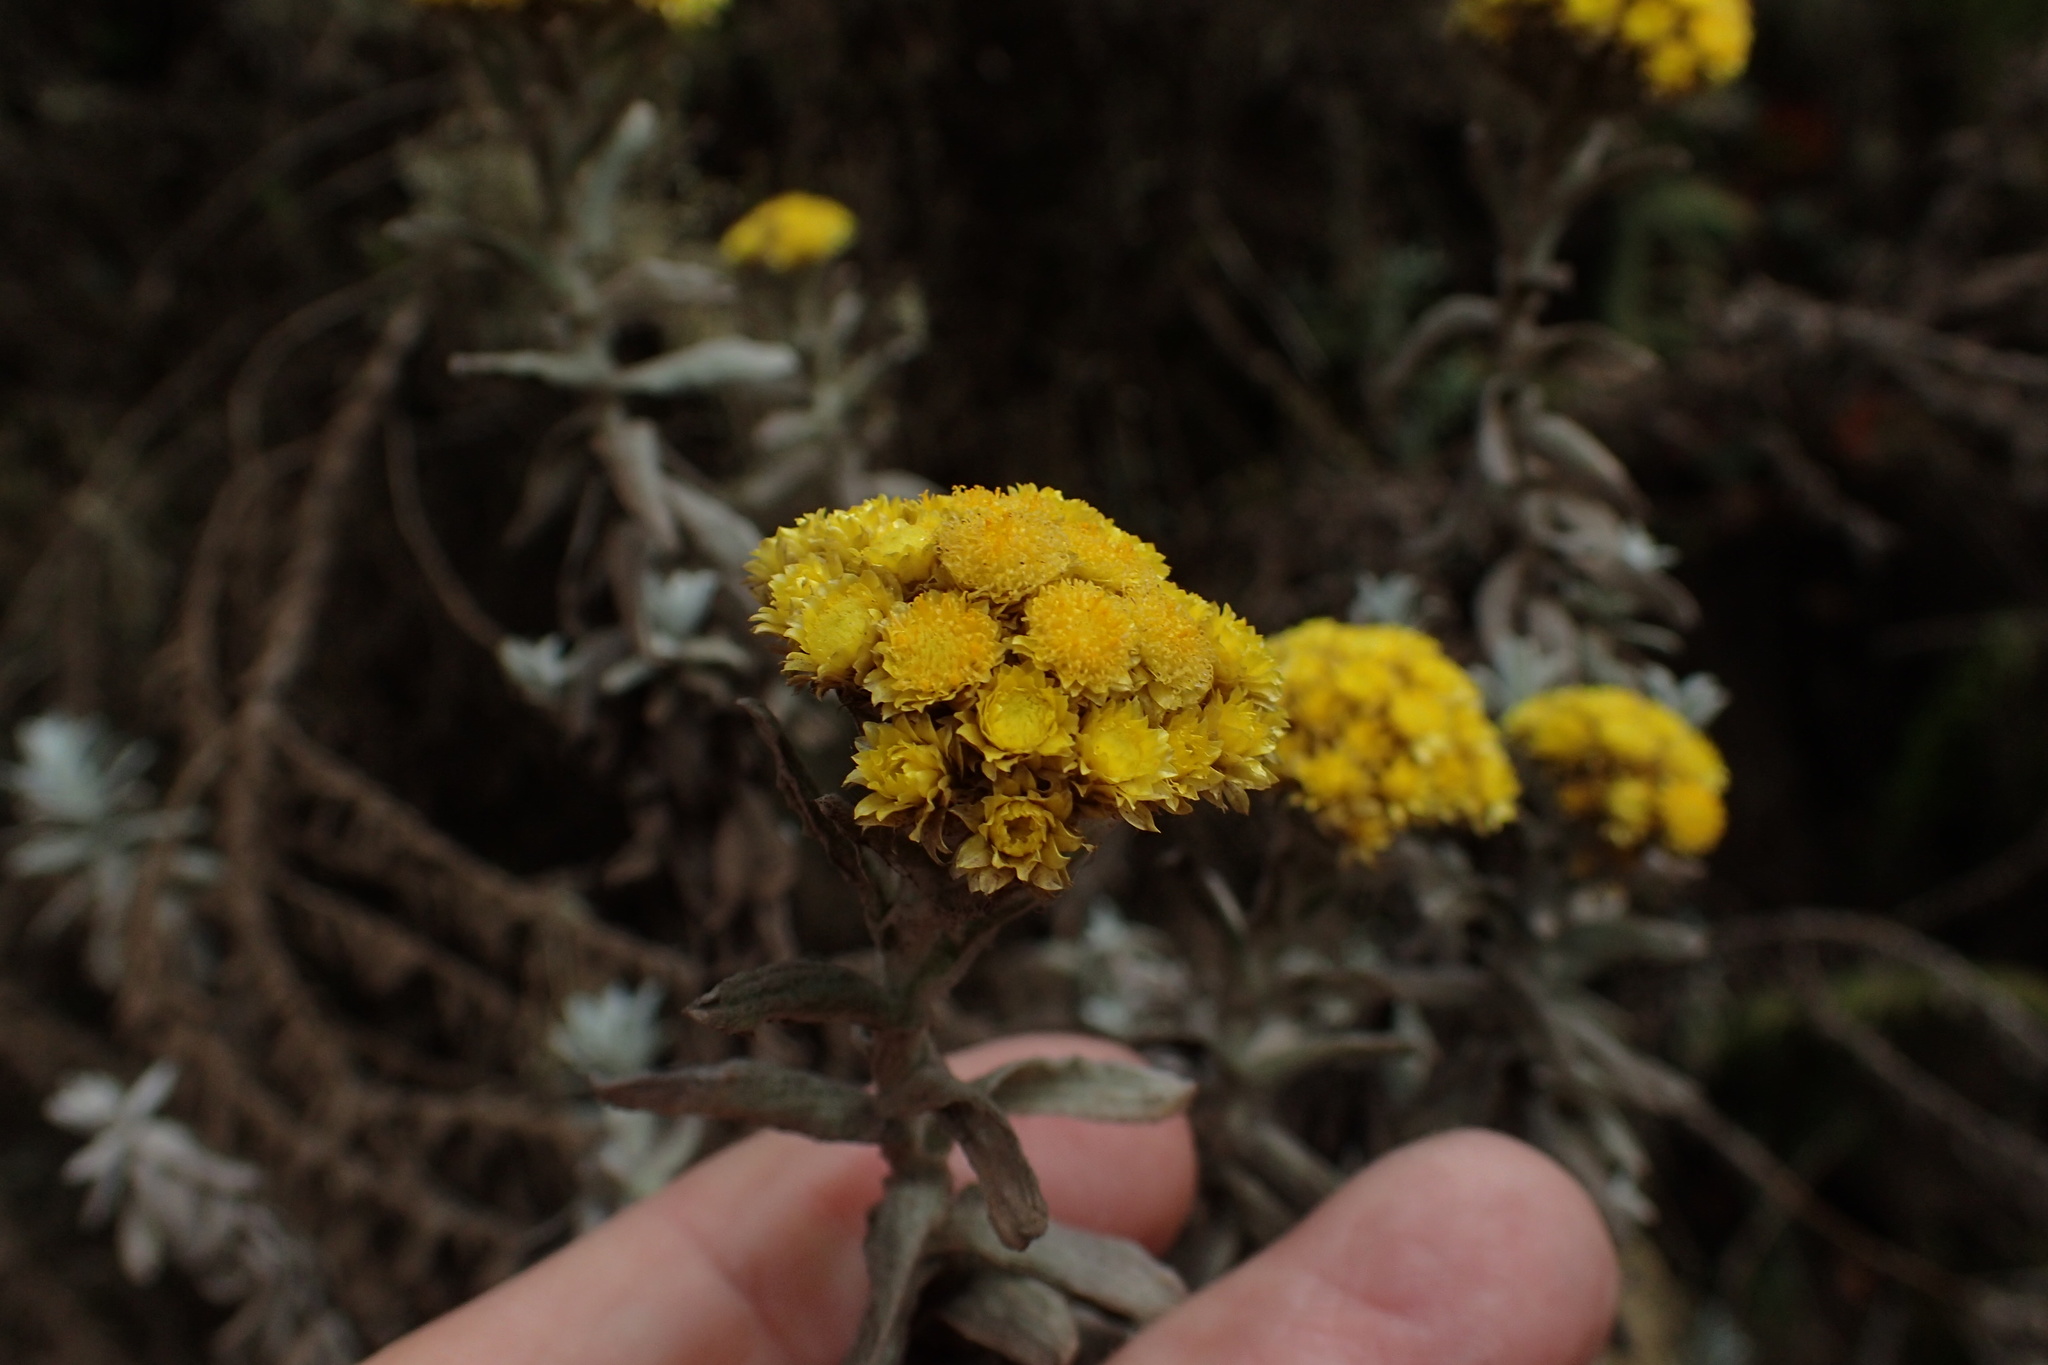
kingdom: Plantae
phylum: Tracheophyta
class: Magnoliopsida
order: Asterales
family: Asteraceae
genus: Helichrysum
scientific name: Helichrysum splendidum
